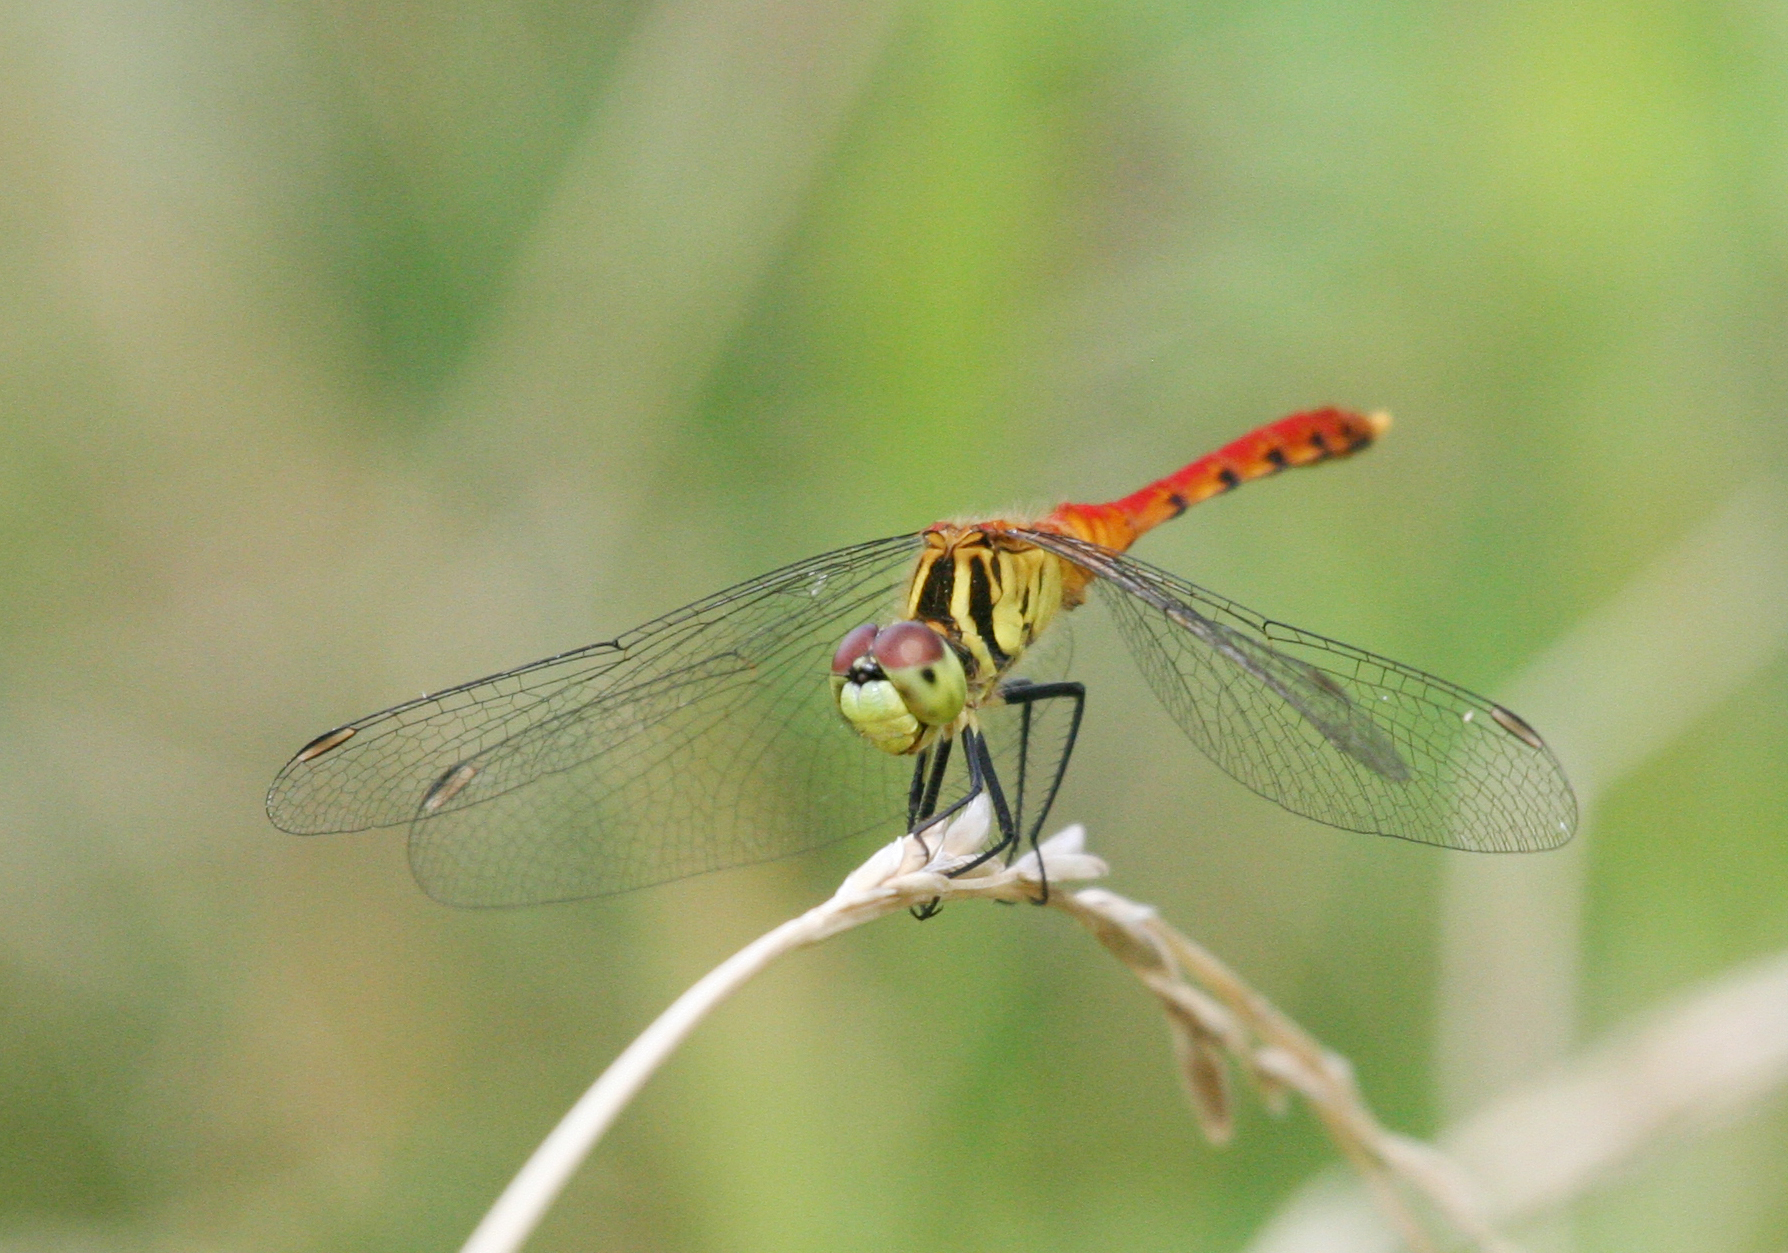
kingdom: Animalia
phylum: Arthropoda
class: Insecta
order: Odonata
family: Libellulidae
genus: Sympetrum
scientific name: Sympetrum kunckeli
